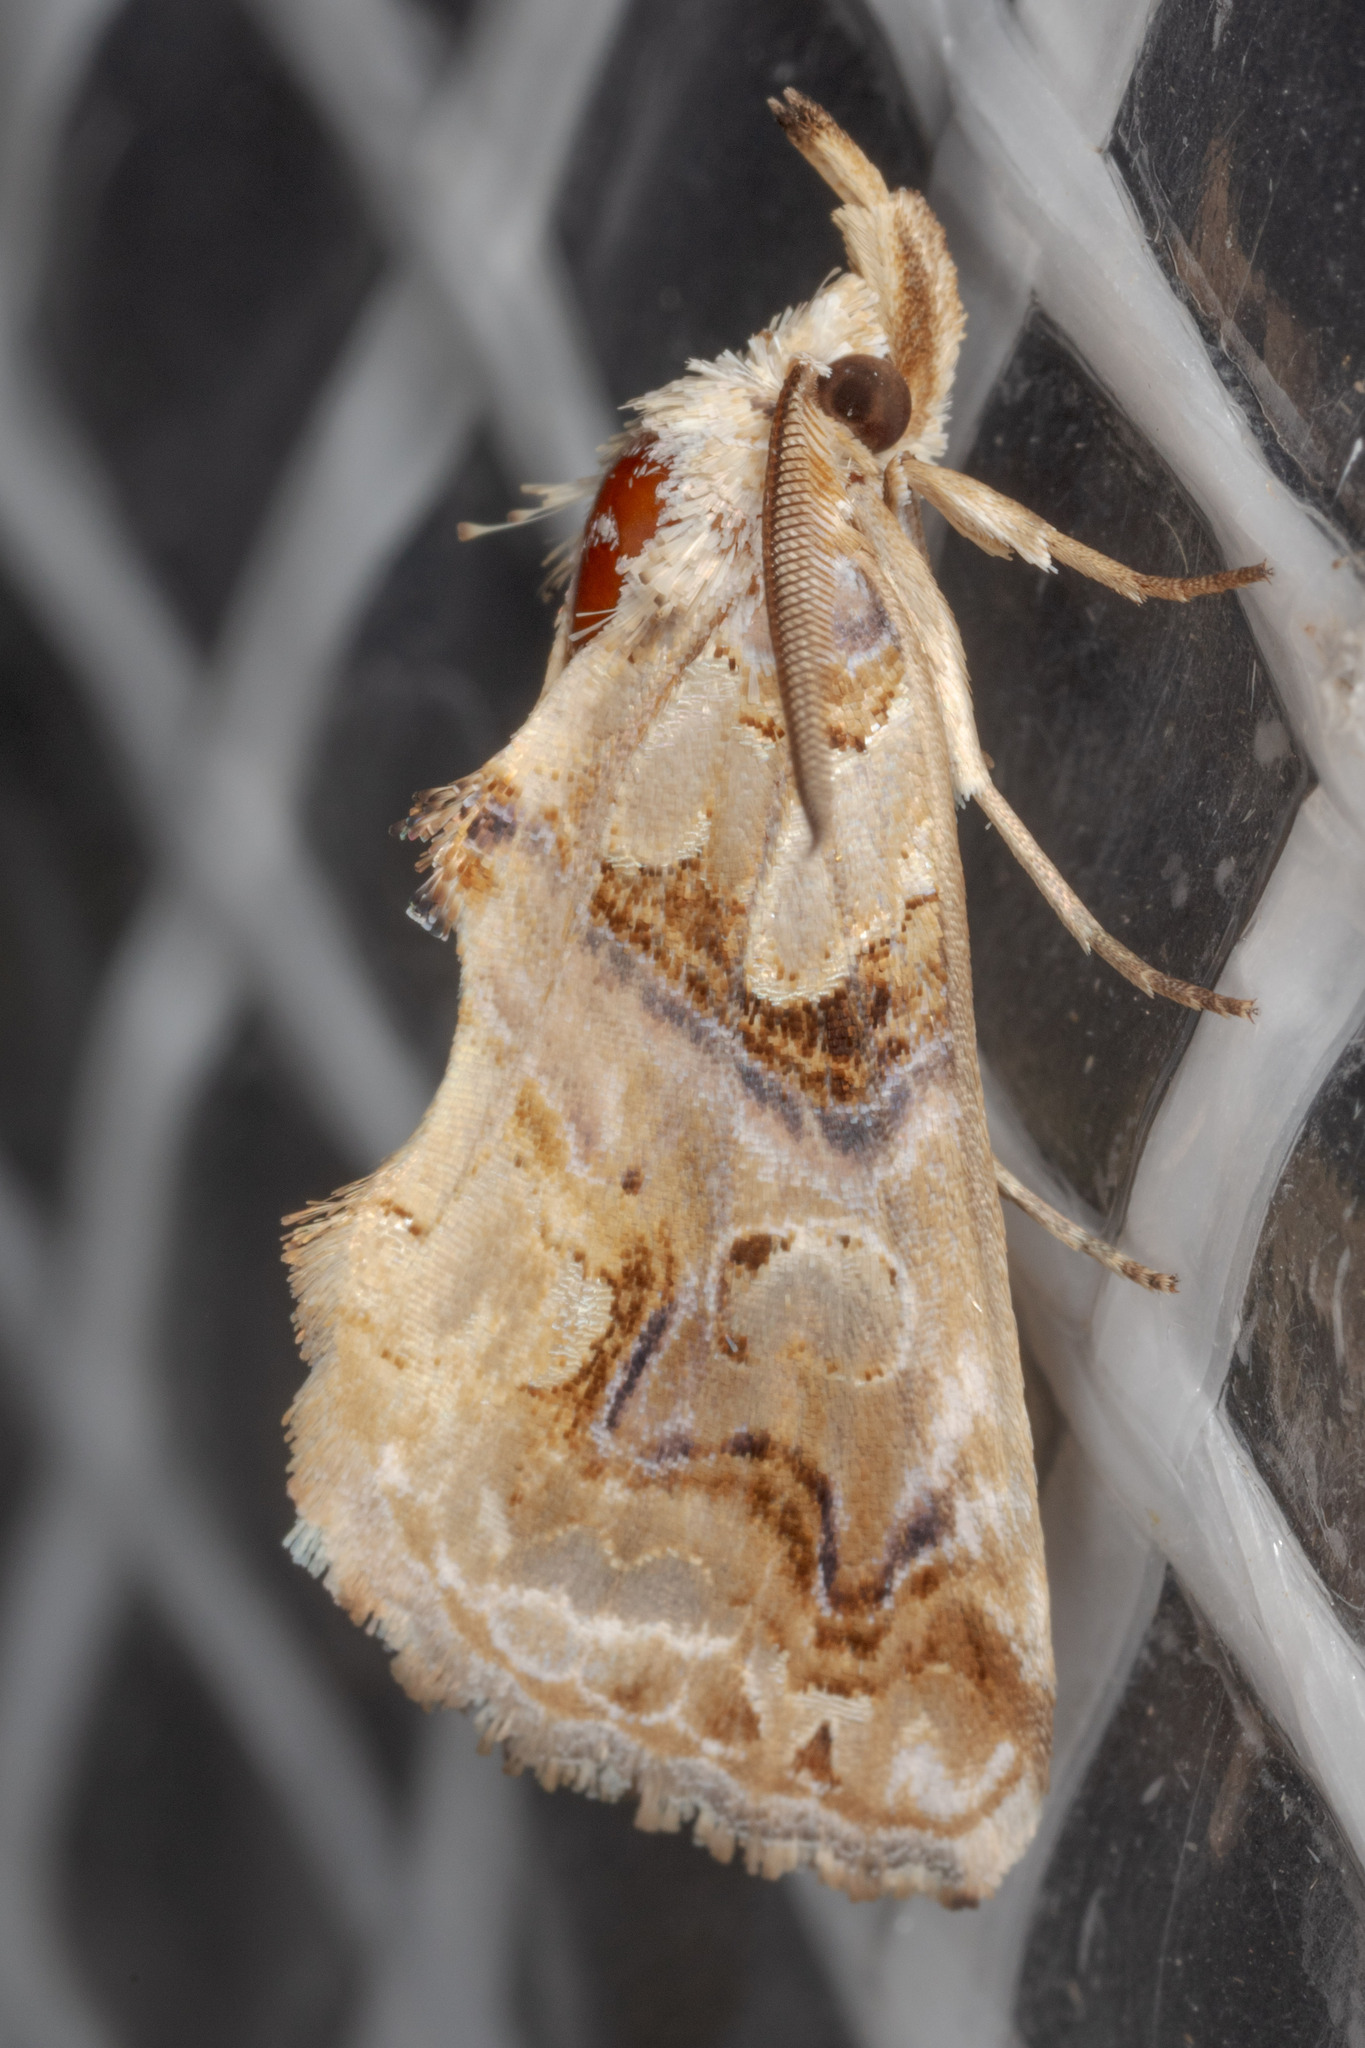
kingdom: Animalia
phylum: Arthropoda
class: Insecta
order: Lepidoptera
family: Erebidae
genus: Plusiodonta
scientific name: Plusiodonta compressipalpis
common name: Moonseed moth
